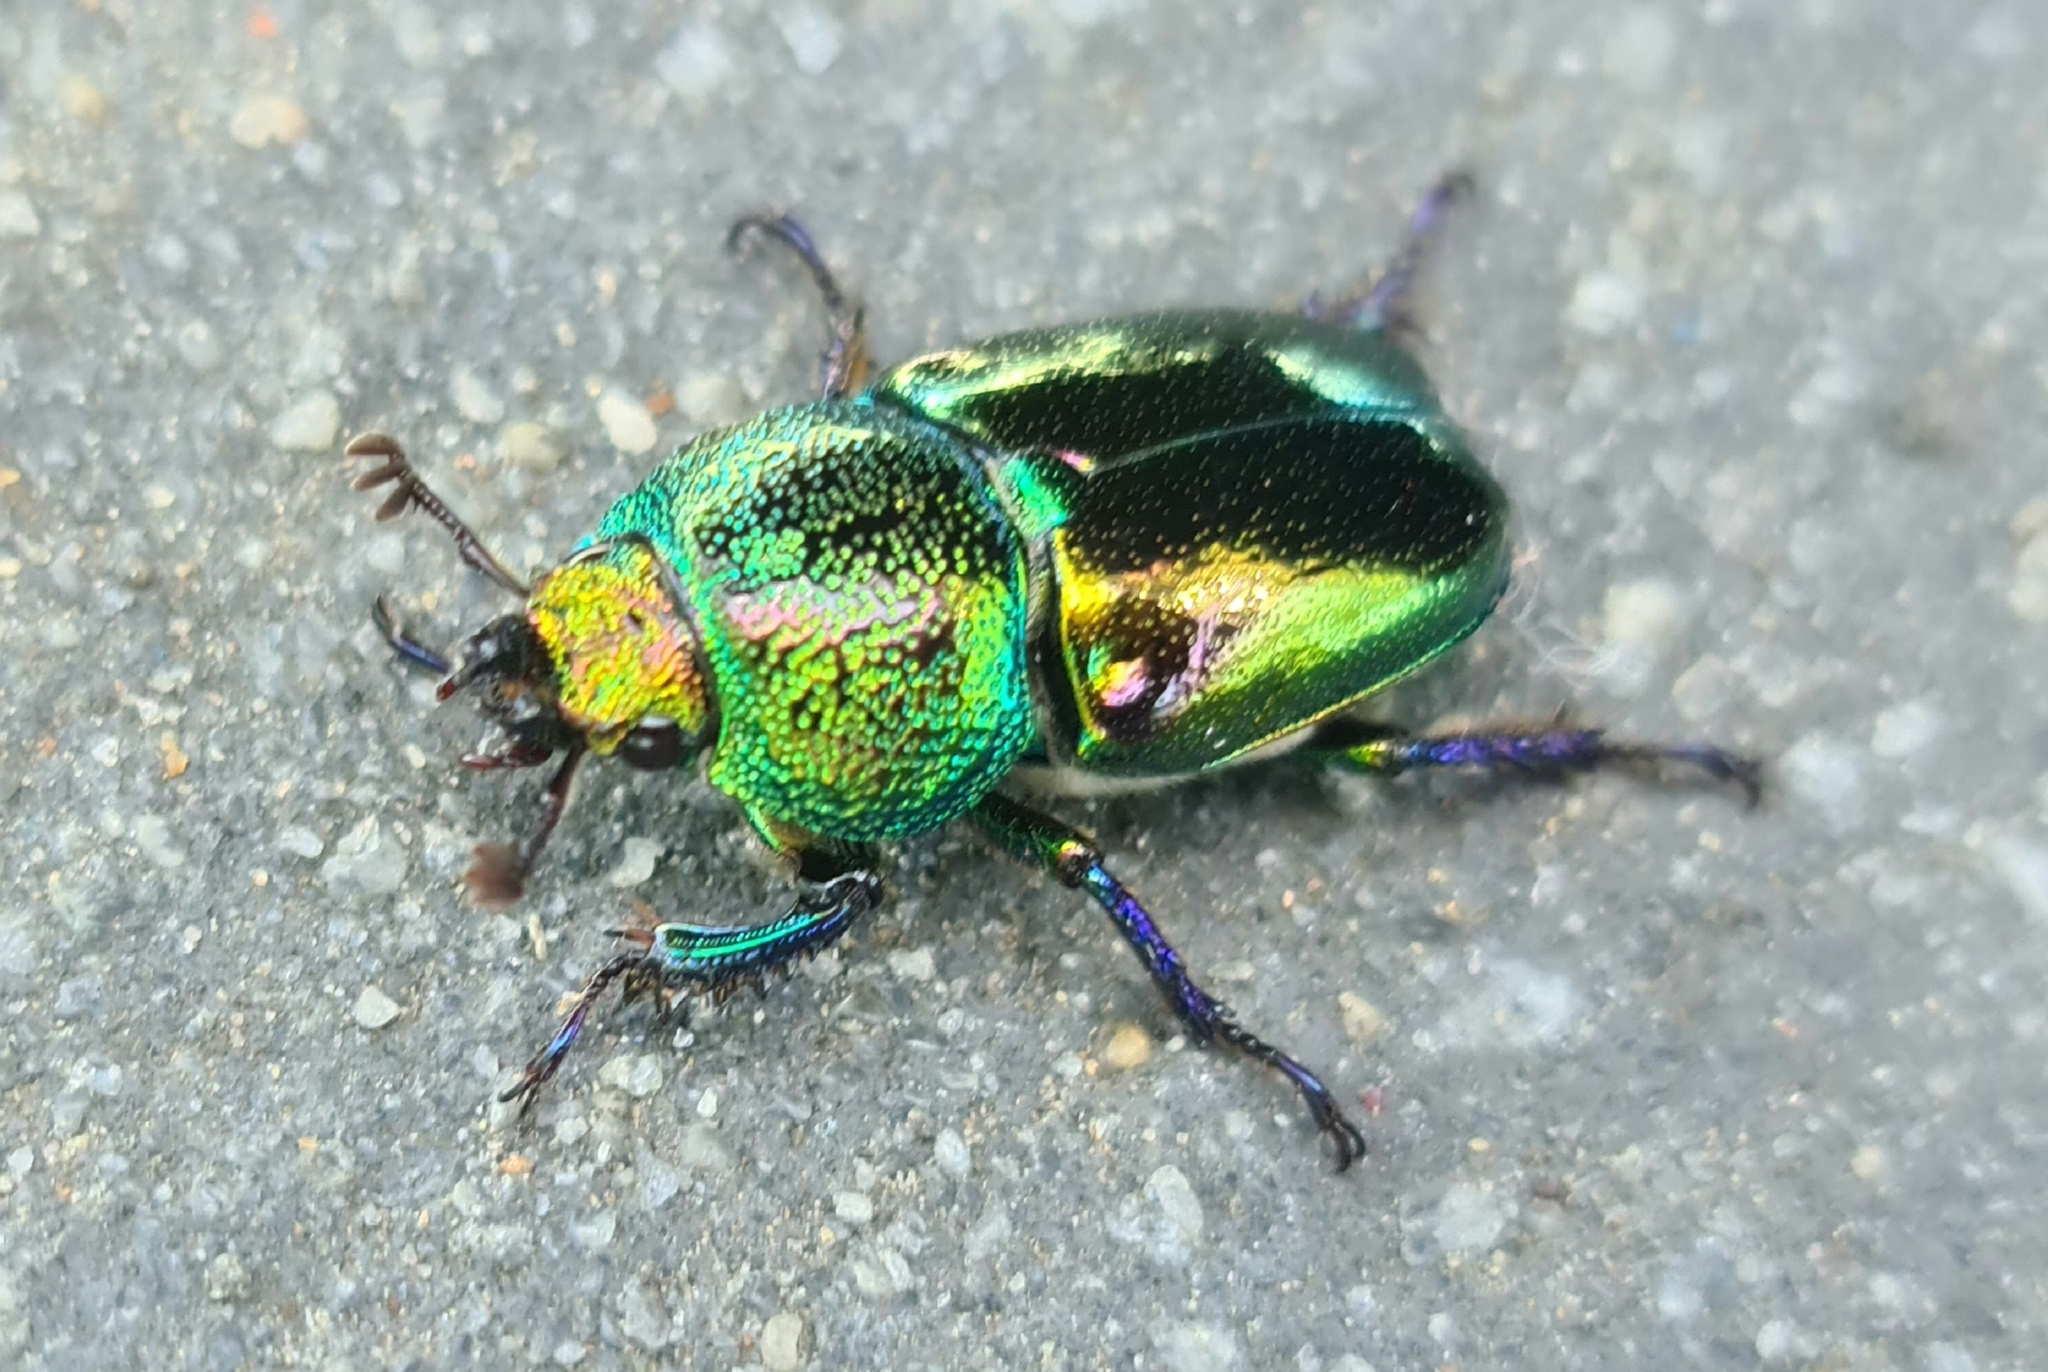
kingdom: Animalia
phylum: Arthropoda
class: Insecta
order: Coleoptera
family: Lucanidae
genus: Lamprima
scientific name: Lamprima aurata
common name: Golden stag beetle
